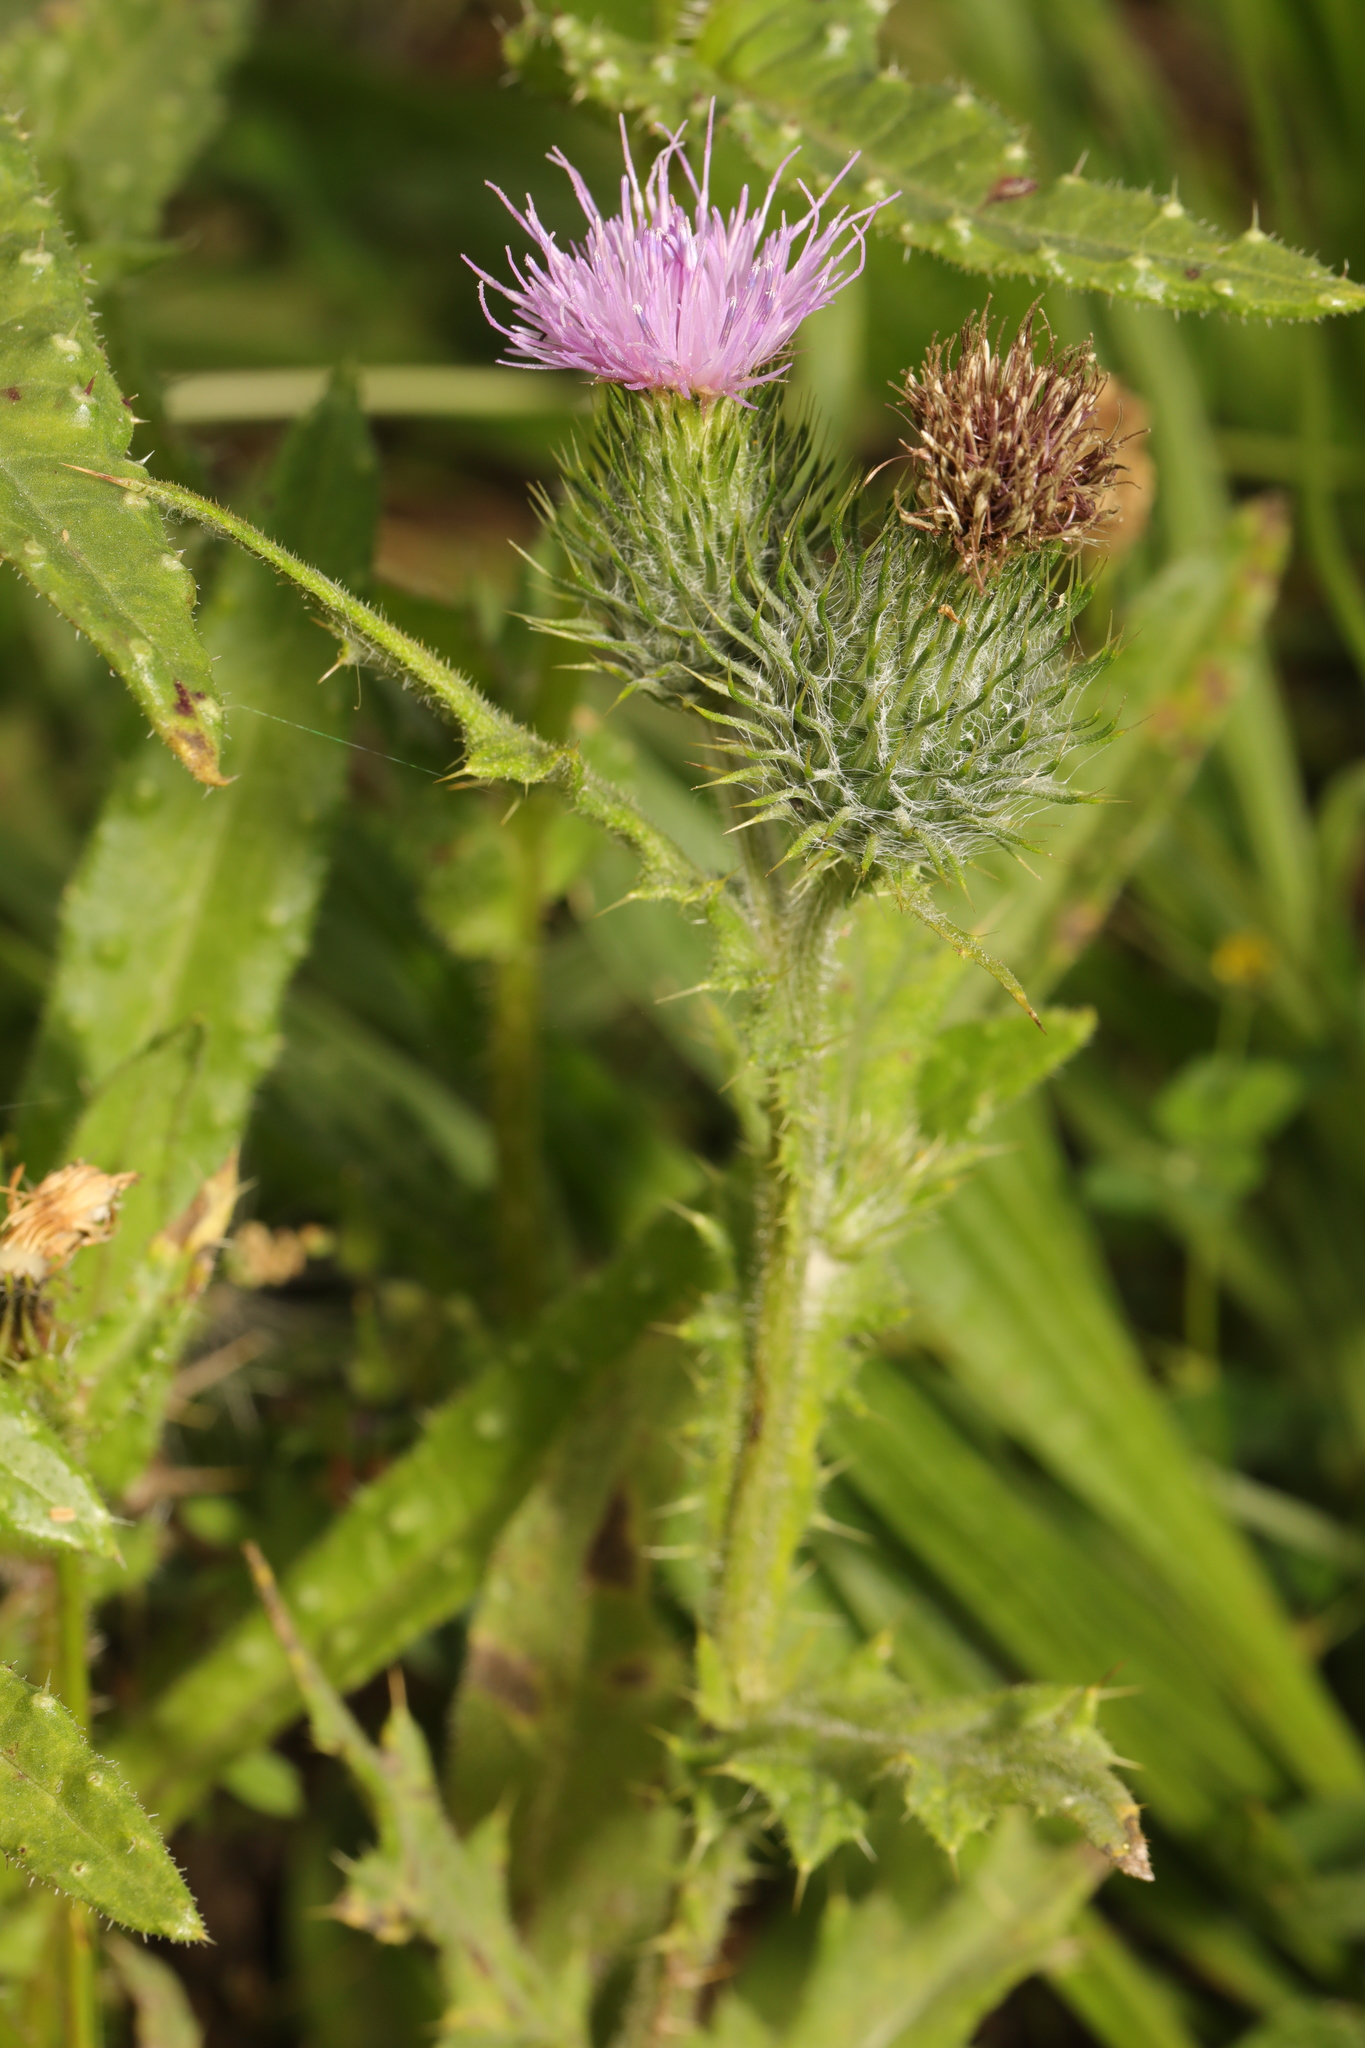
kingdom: Plantae
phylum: Tracheophyta
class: Magnoliopsida
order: Asterales
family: Asteraceae
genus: Cirsium
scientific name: Cirsium vulgare
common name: Bull thistle
